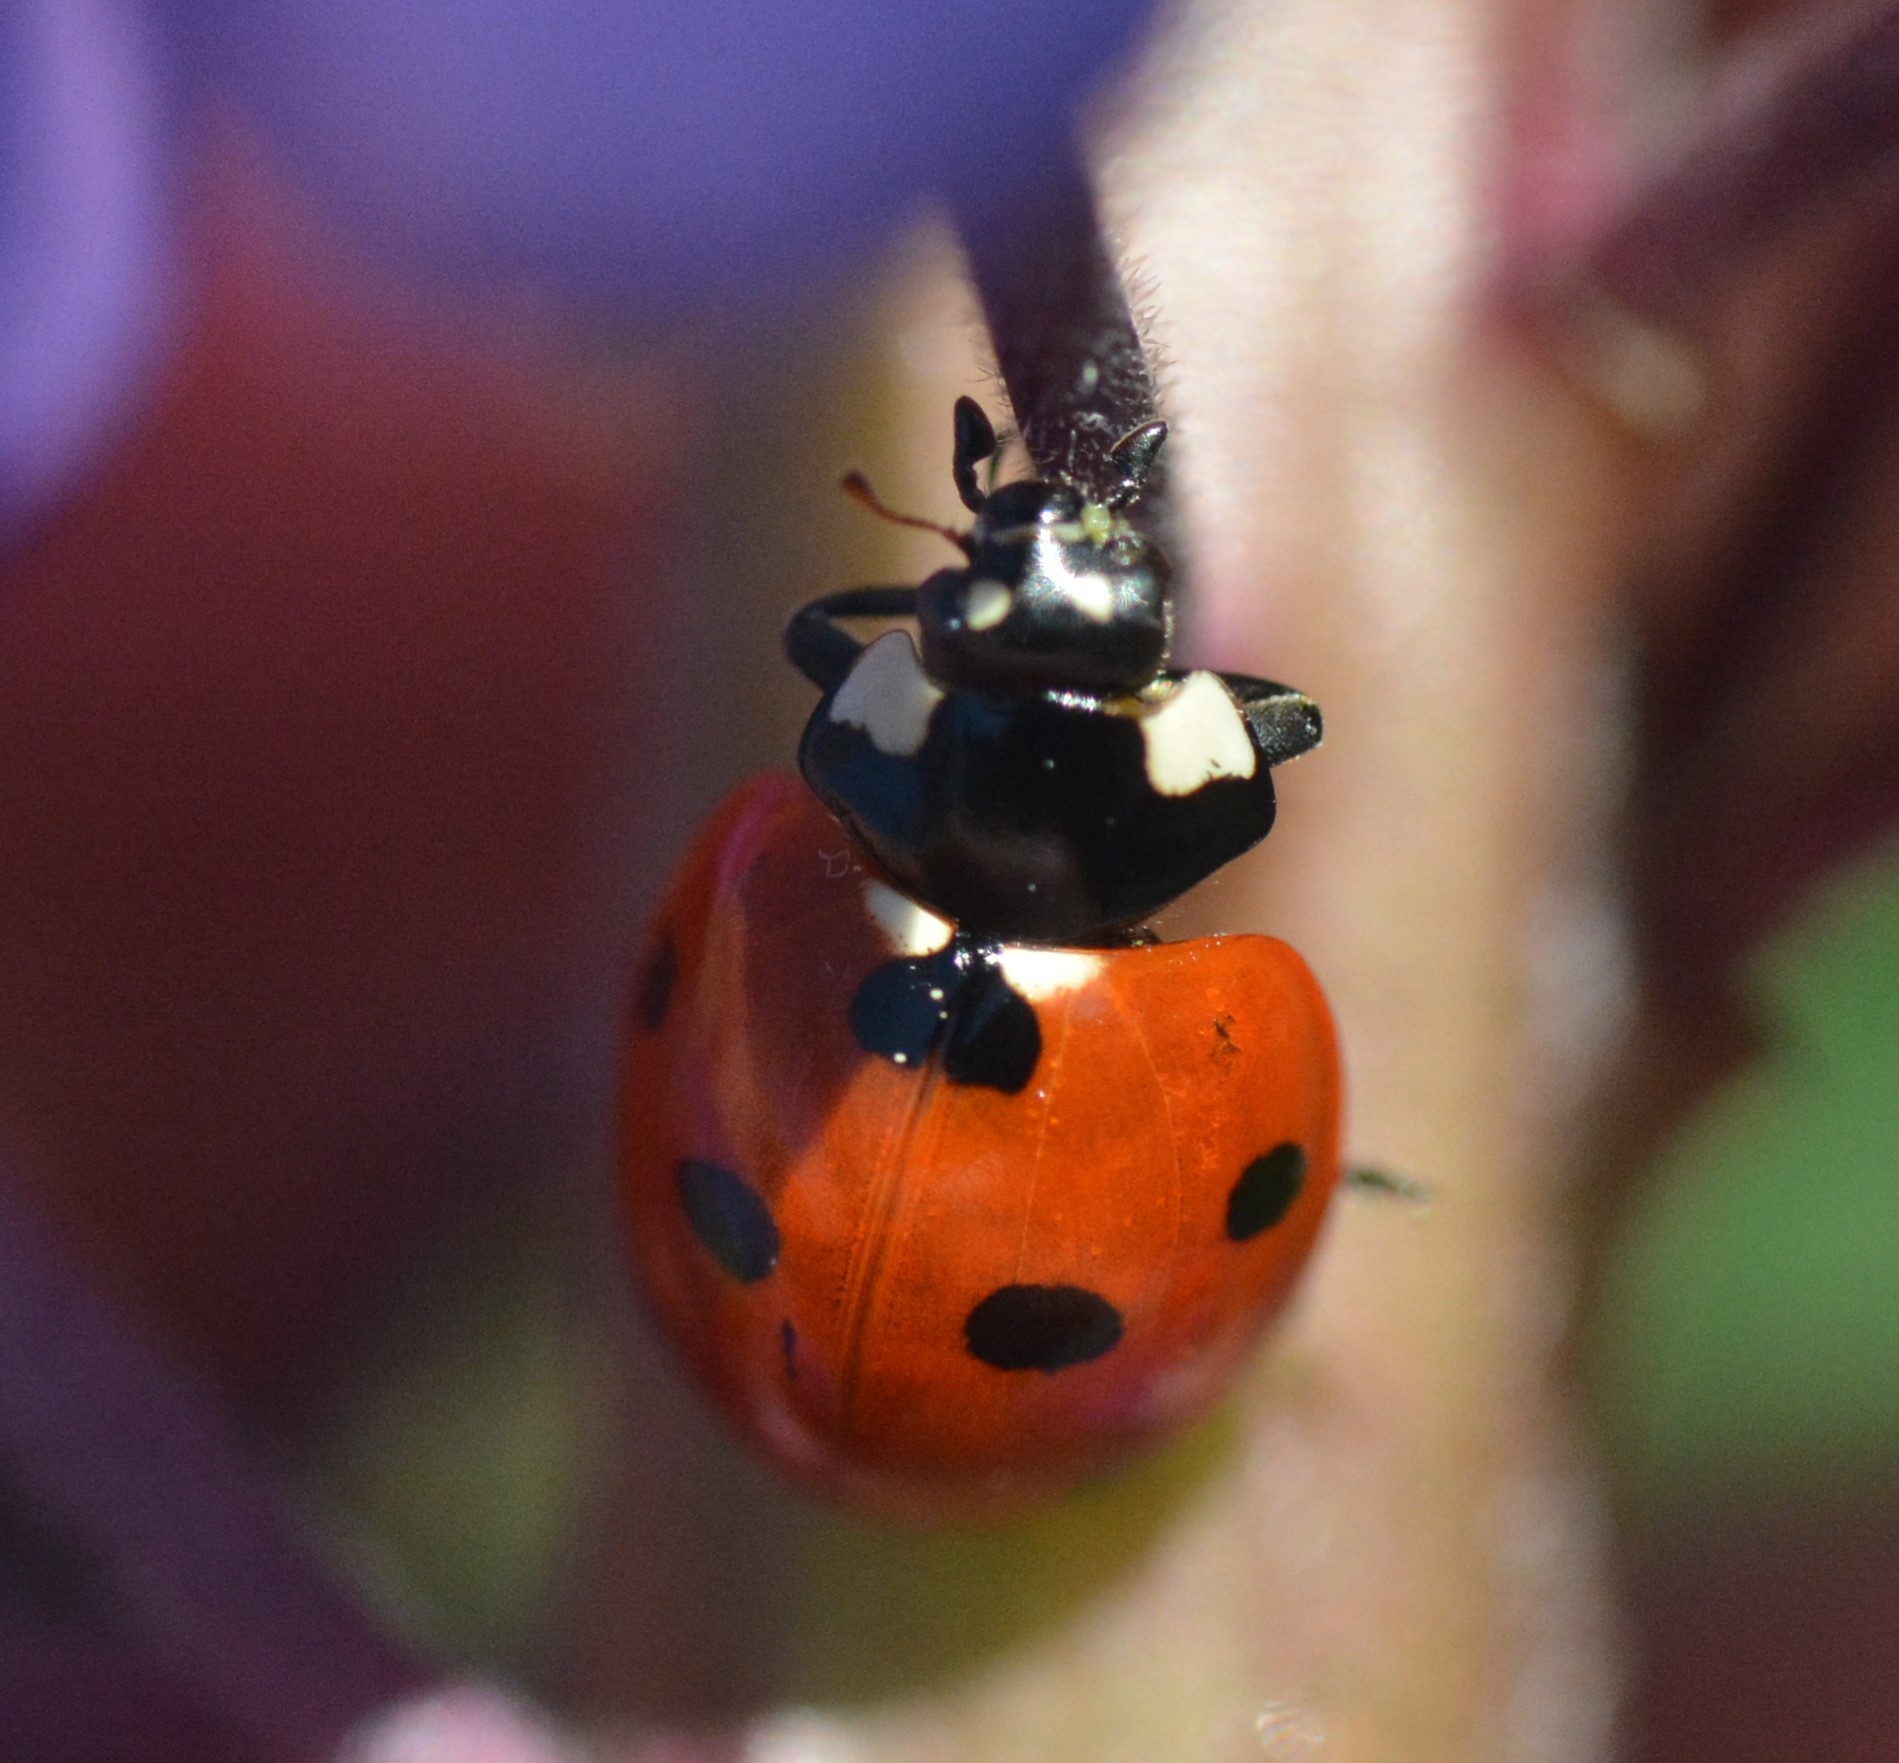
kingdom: Animalia
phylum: Arthropoda
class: Insecta
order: Coleoptera
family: Coccinellidae
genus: Coccinella
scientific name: Coccinella septempunctata
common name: Sevenspotted lady beetle
